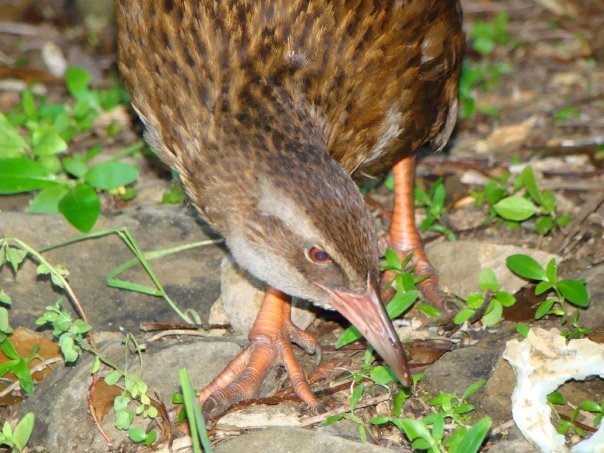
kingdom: Animalia
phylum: Chordata
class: Aves
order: Gruiformes
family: Rallidae
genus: Gallirallus
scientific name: Gallirallus australis
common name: Weka
